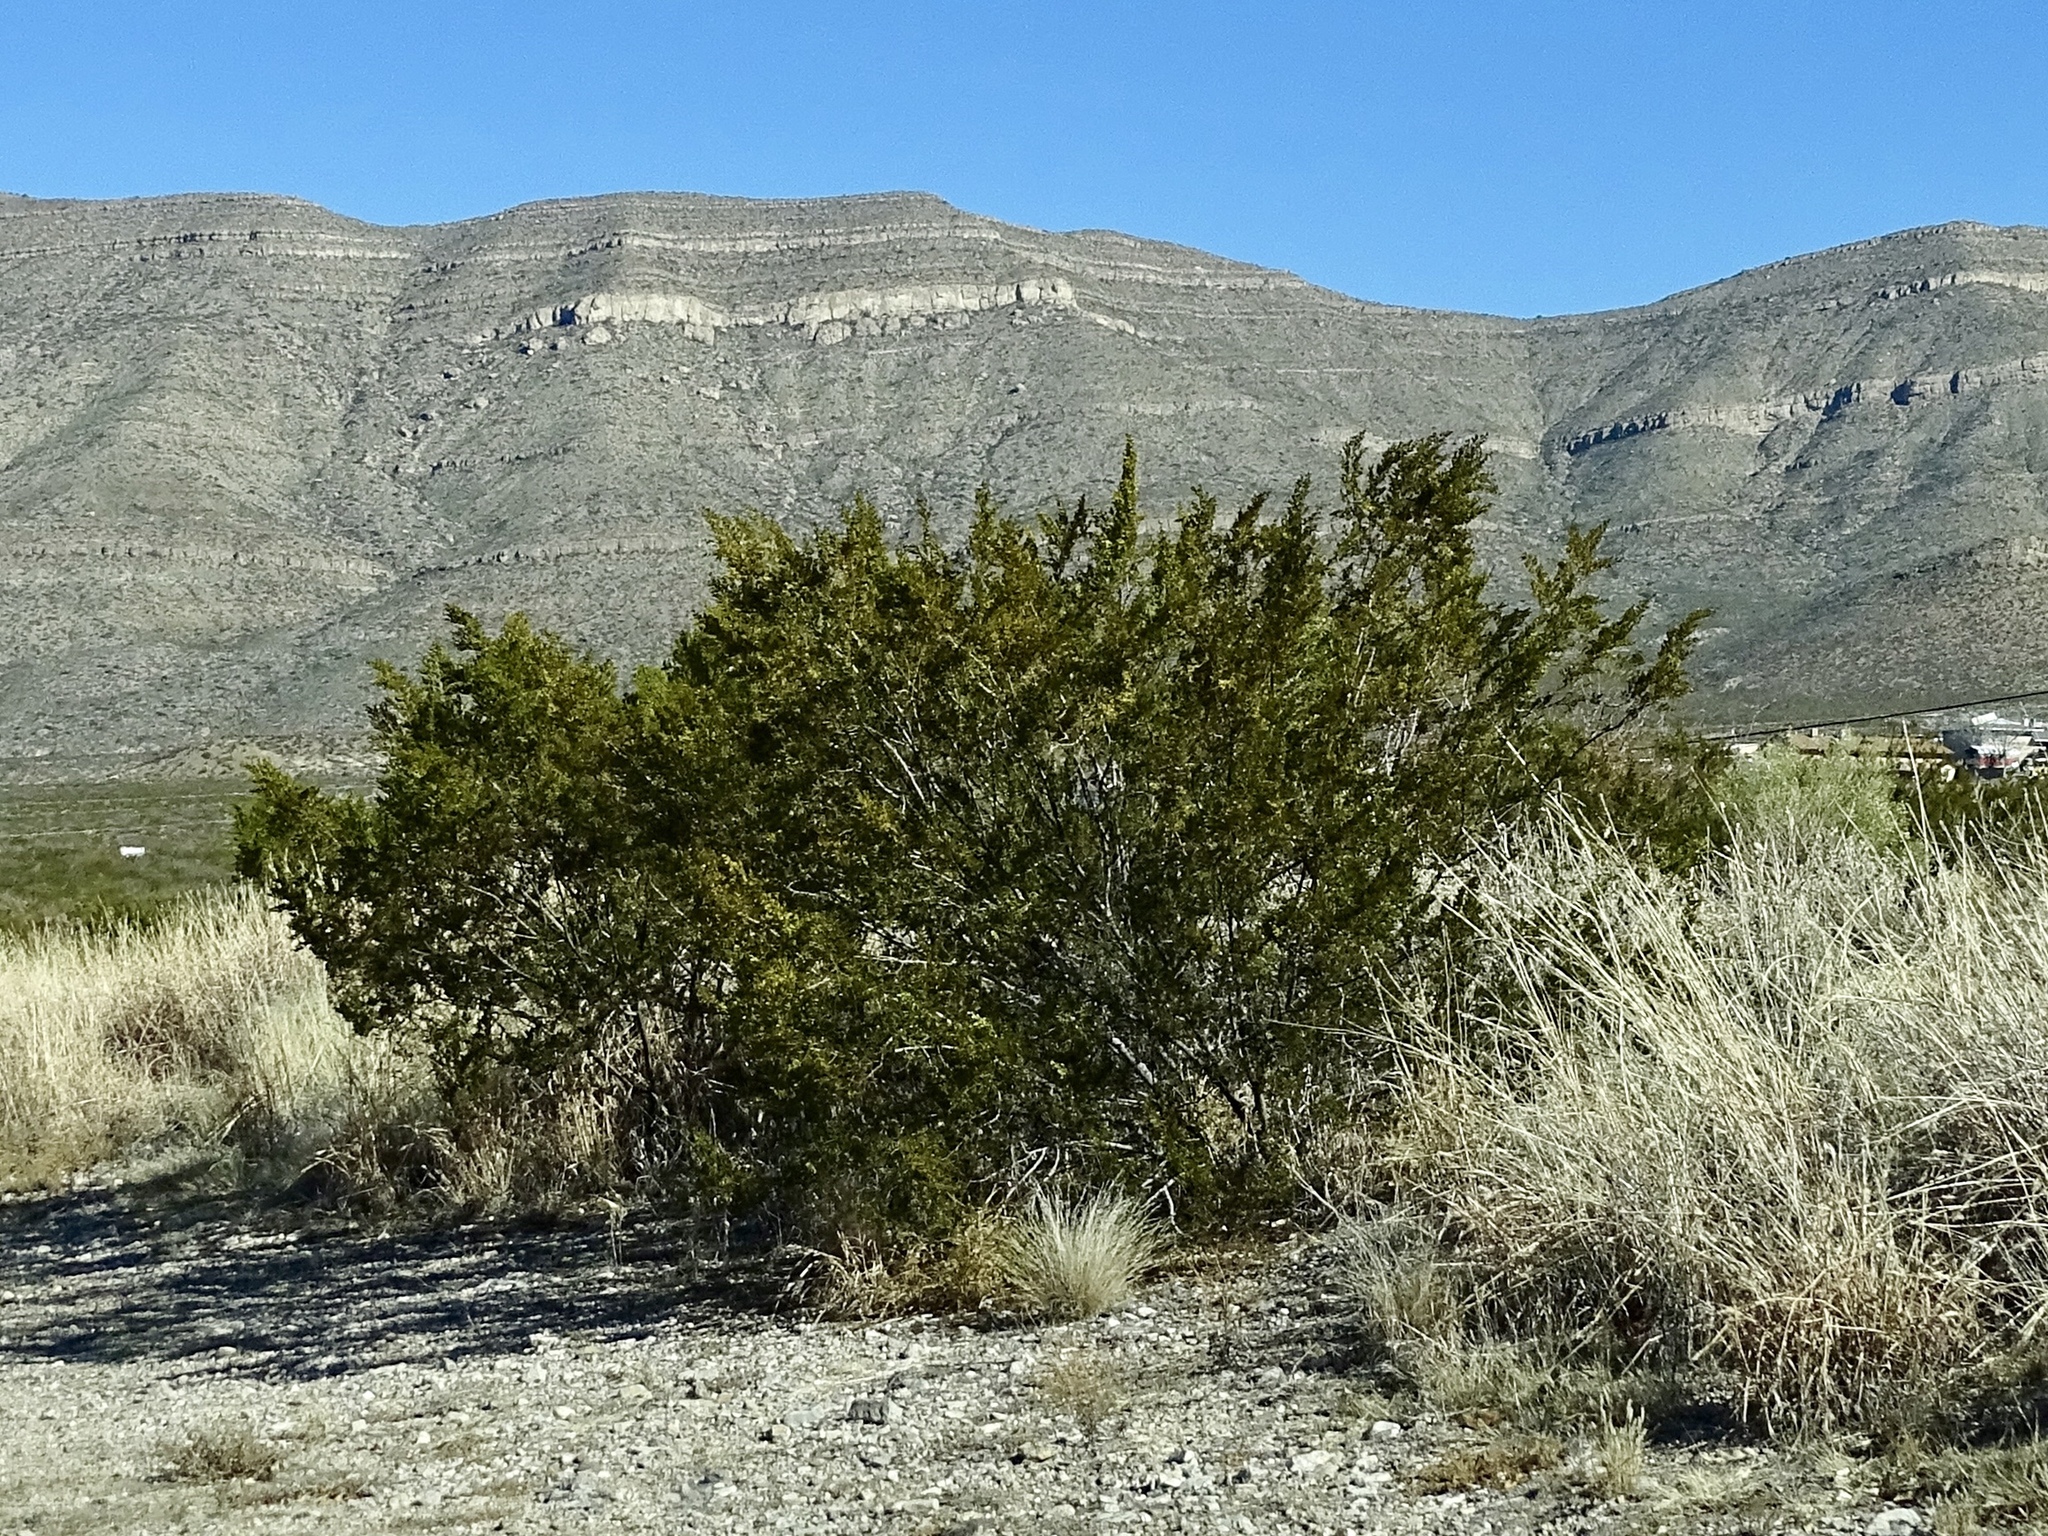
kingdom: Plantae
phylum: Tracheophyta
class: Magnoliopsida
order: Zygophyllales
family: Zygophyllaceae
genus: Larrea
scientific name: Larrea tridentata
